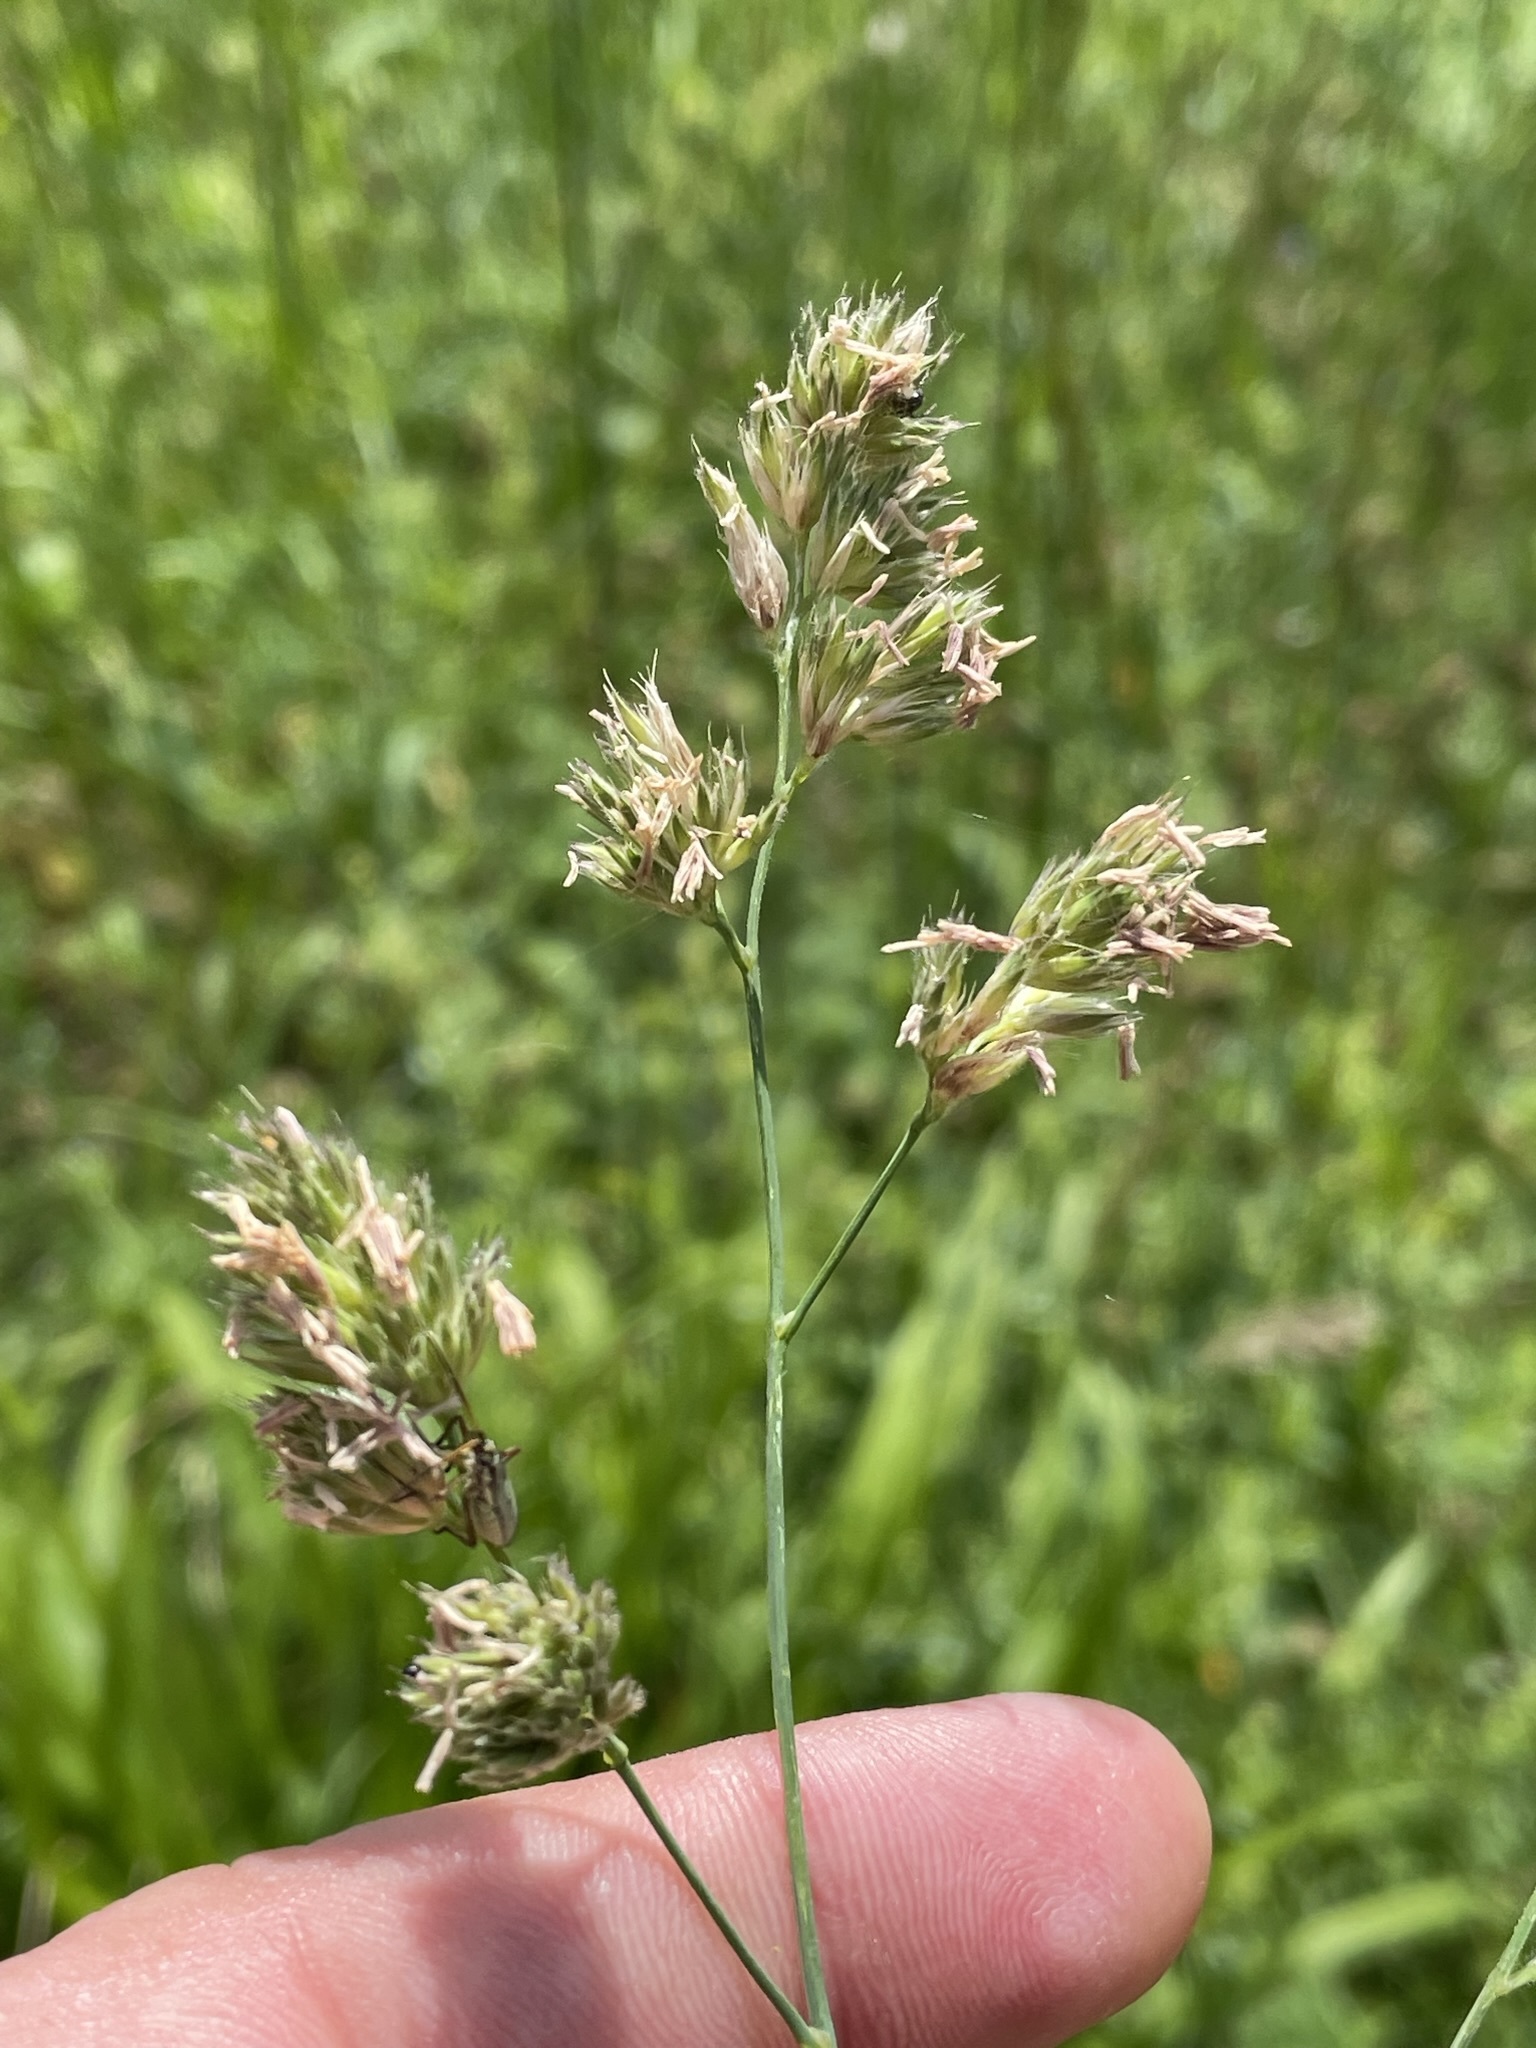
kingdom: Plantae
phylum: Tracheophyta
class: Liliopsida
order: Poales
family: Poaceae
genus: Dactylis
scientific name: Dactylis glomerata
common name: Orchardgrass
